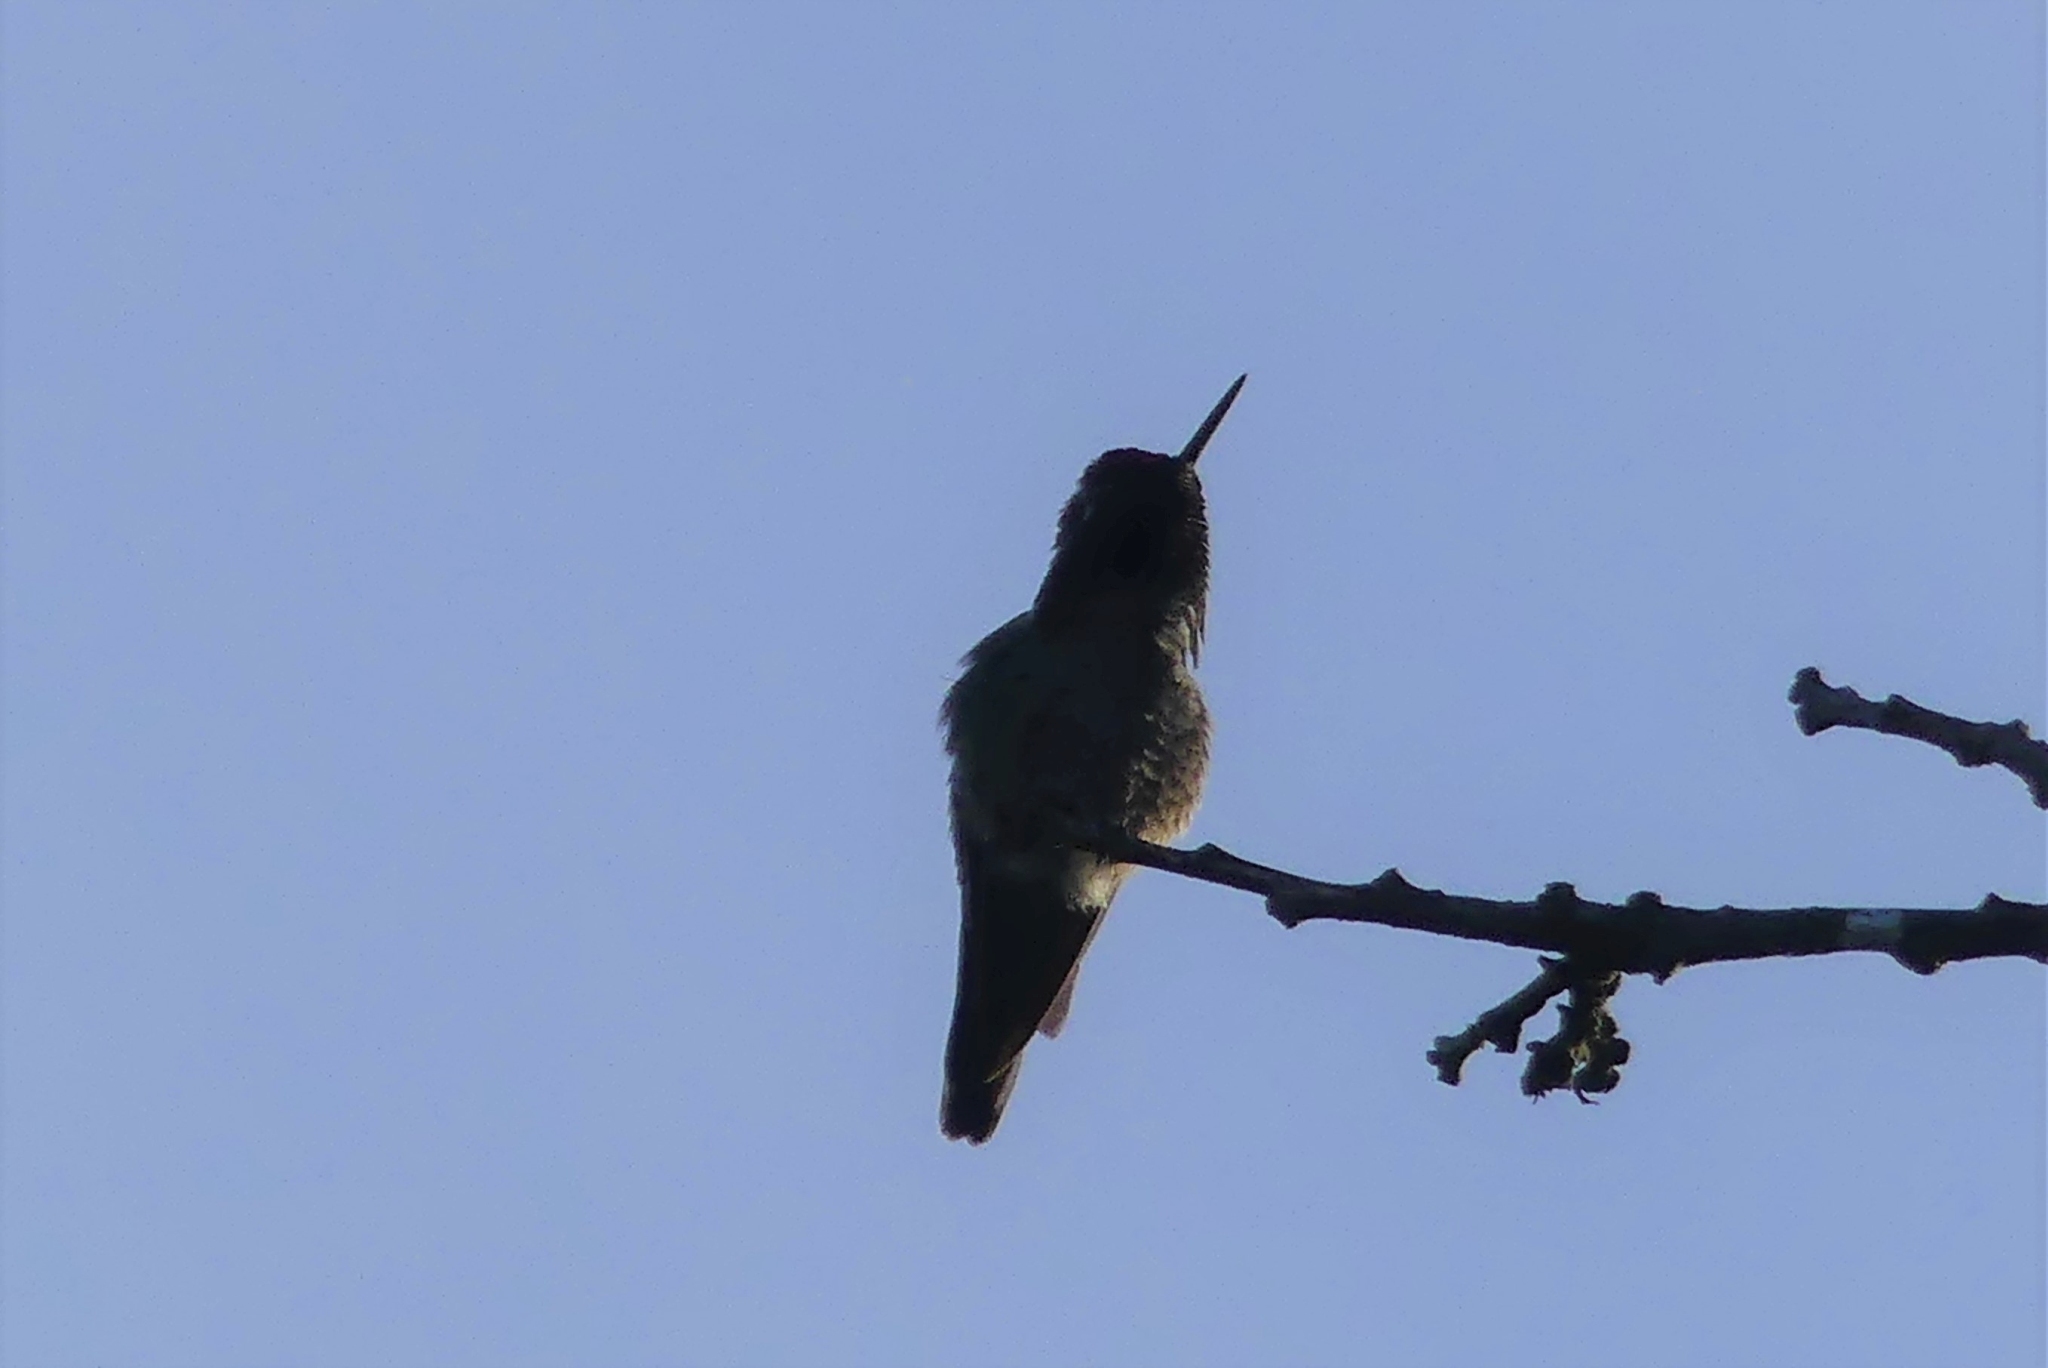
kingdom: Animalia
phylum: Chordata
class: Aves
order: Apodiformes
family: Trochilidae
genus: Calypte
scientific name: Calypte anna
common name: Anna's hummingbird
